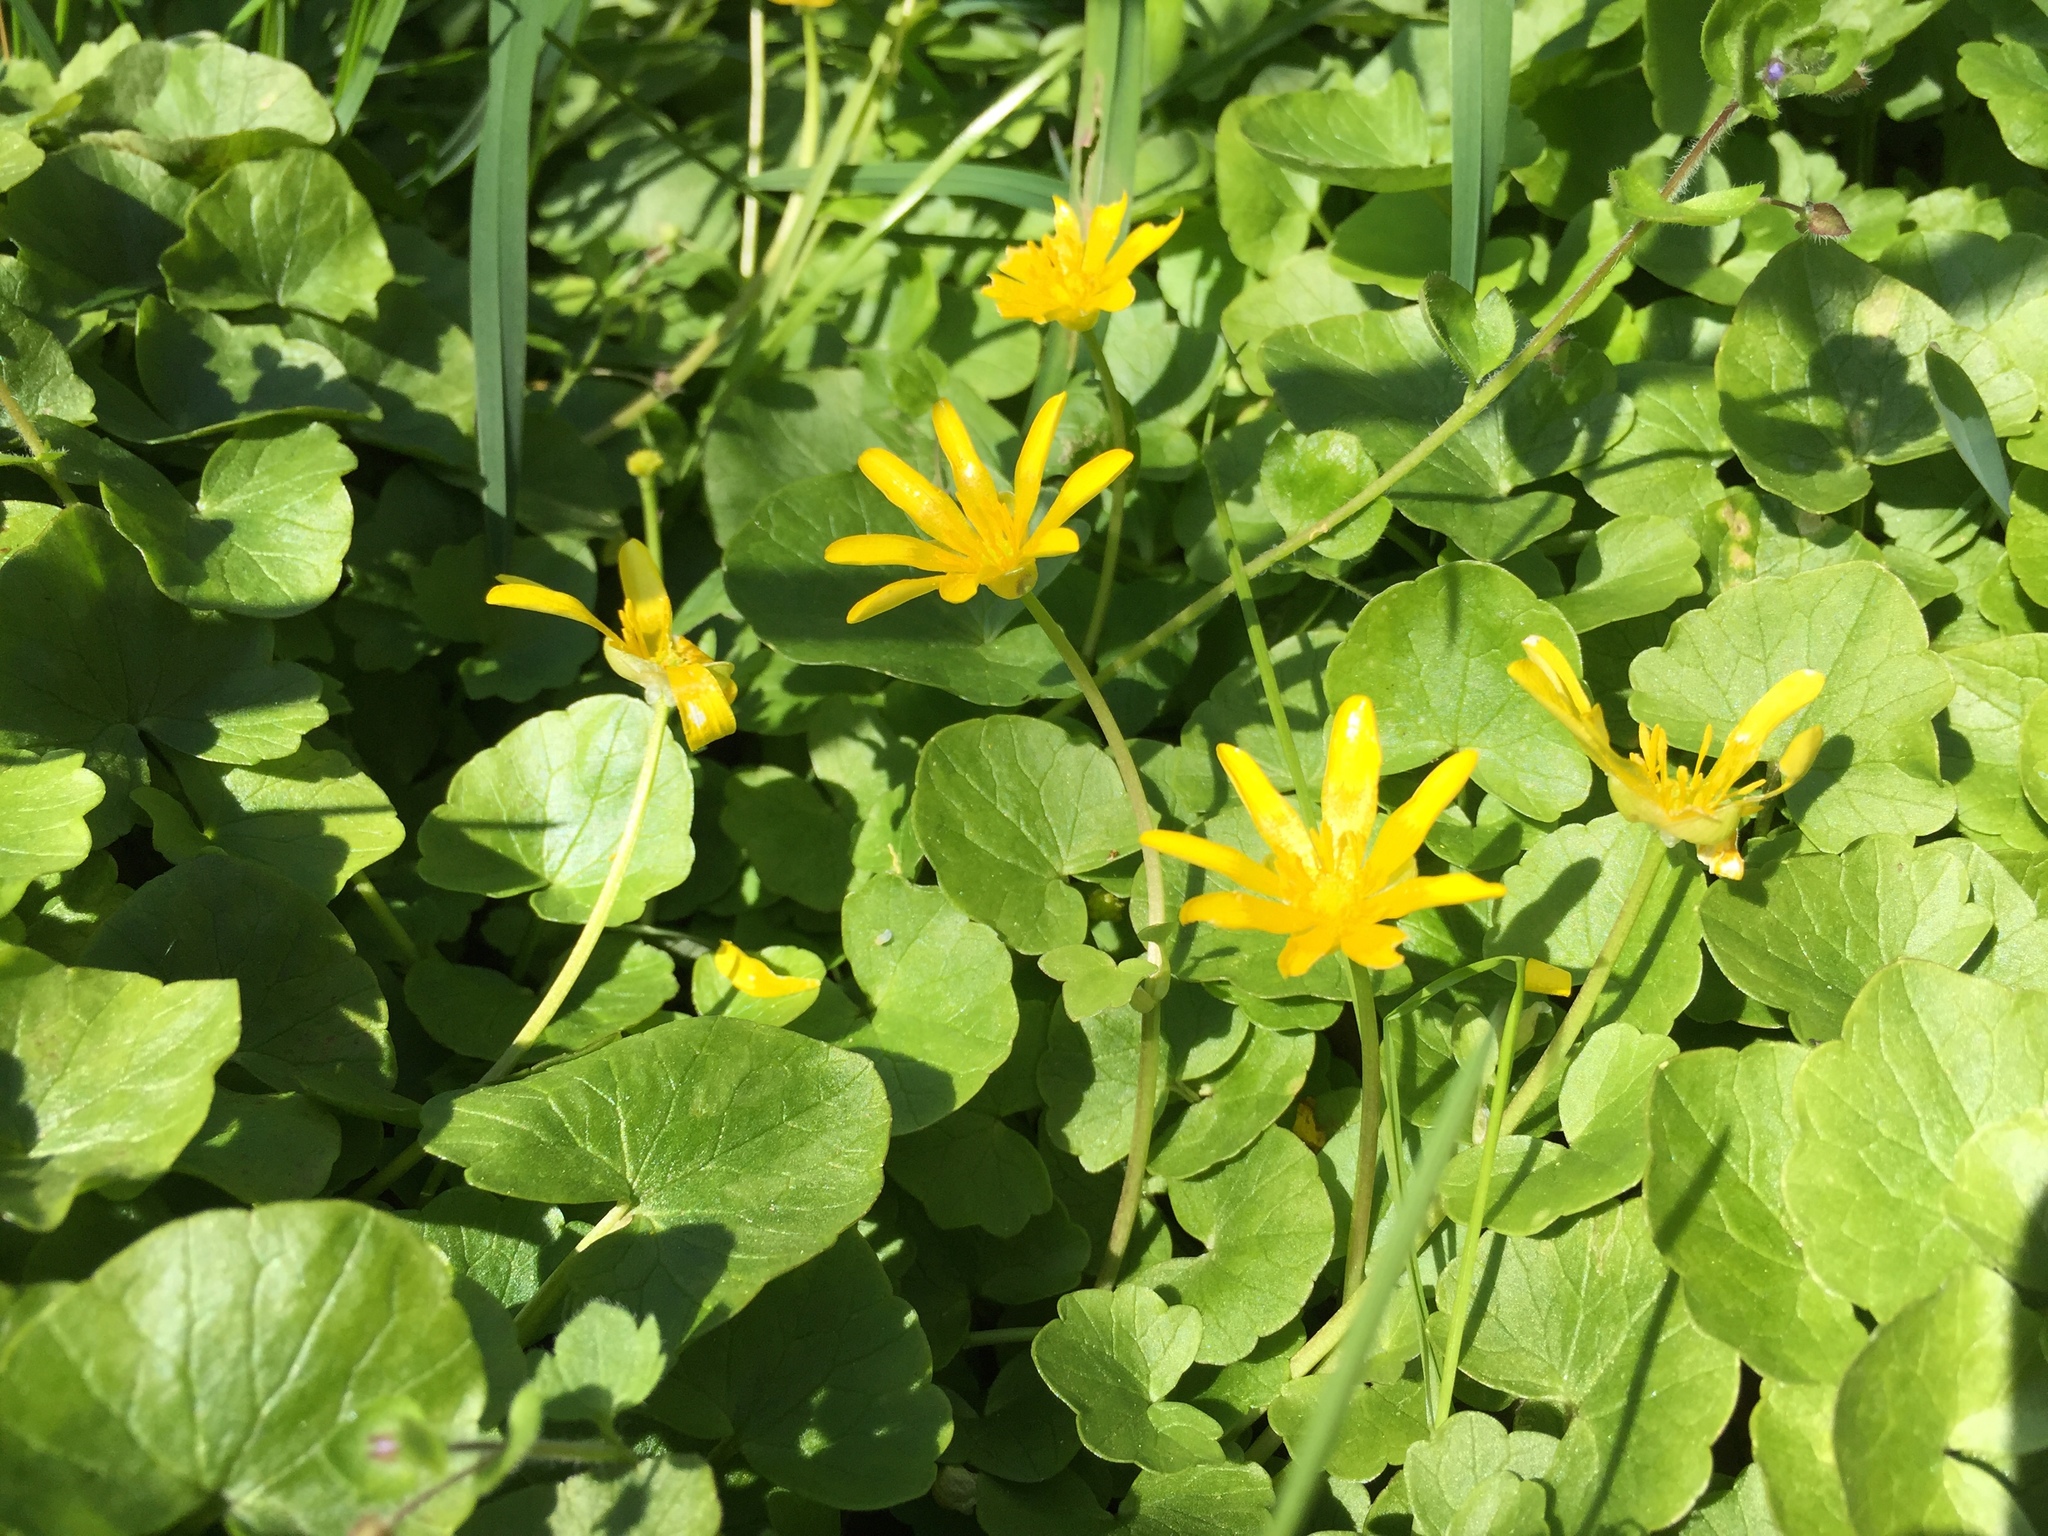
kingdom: Plantae
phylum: Tracheophyta
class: Magnoliopsida
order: Ranunculales
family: Ranunculaceae
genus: Ficaria
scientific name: Ficaria verna
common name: Lesser celandine
